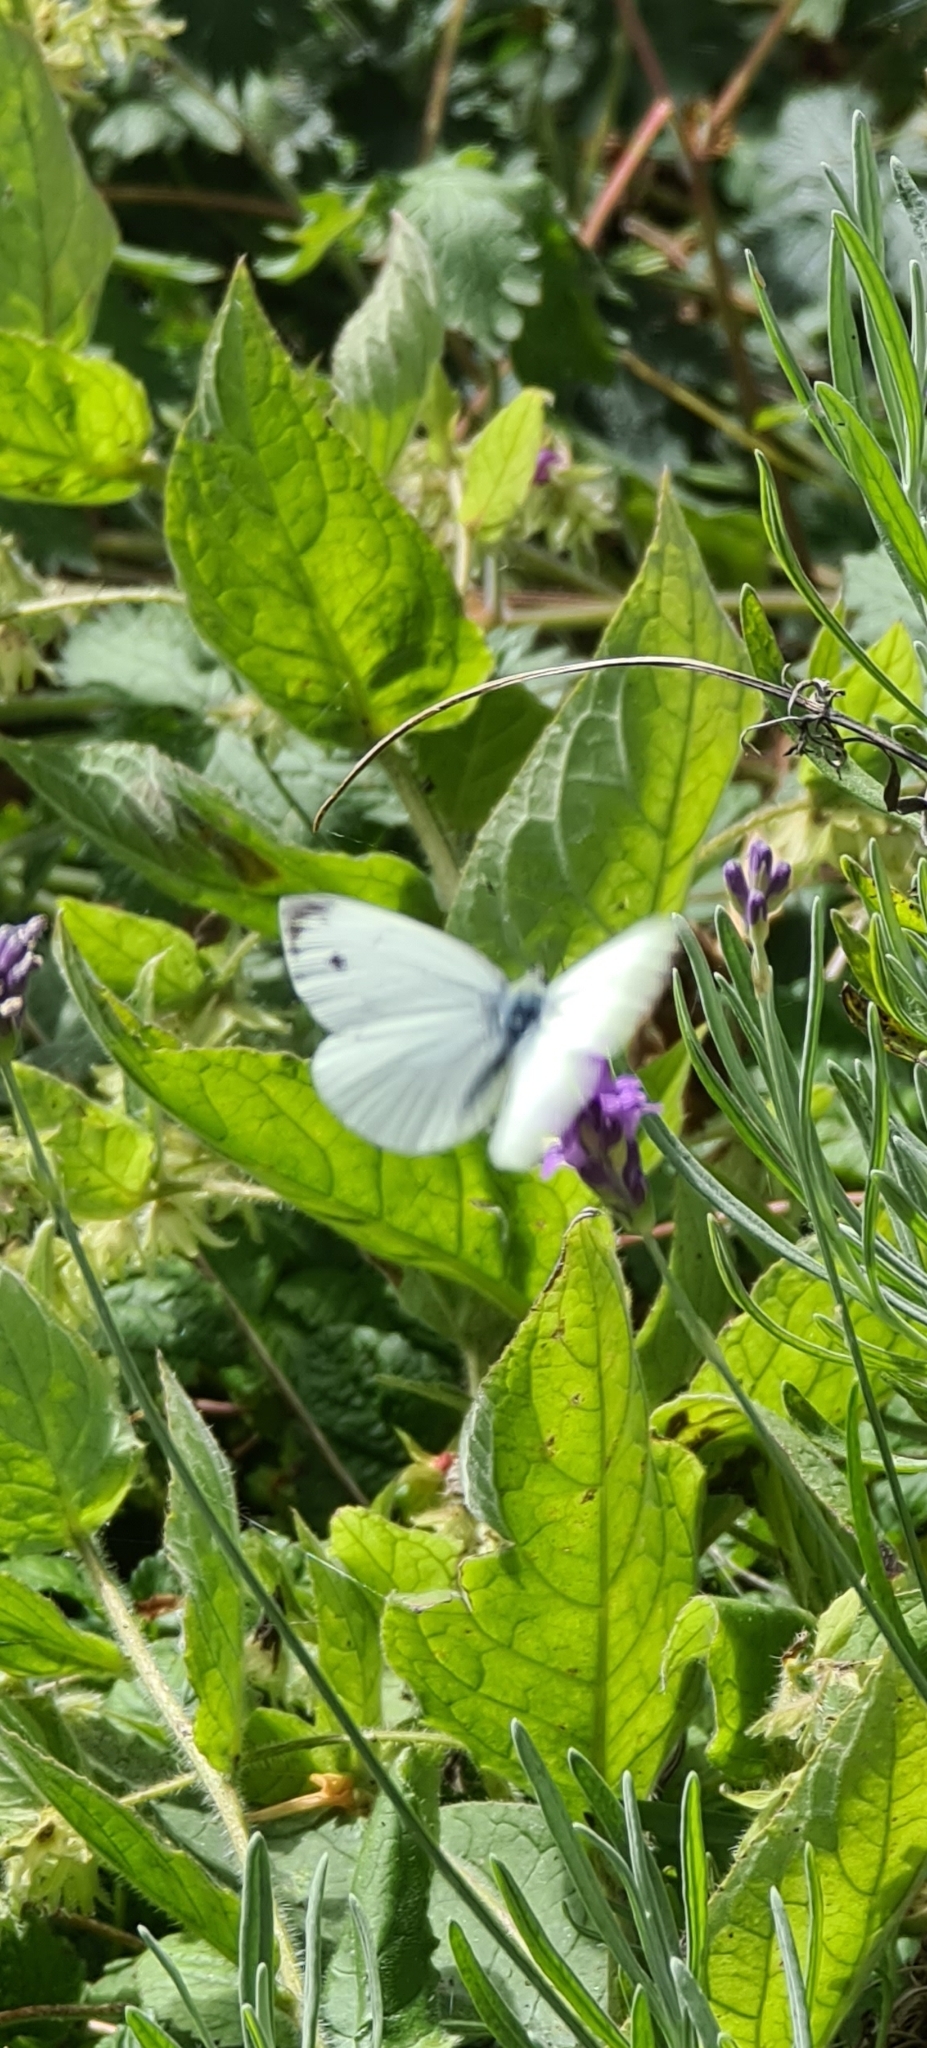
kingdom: Animalia
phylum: Arthropoda
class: Insecta
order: Lepidoptera
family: Pieridae
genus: Pieris
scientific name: Pieris napi
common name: Green-veined white
